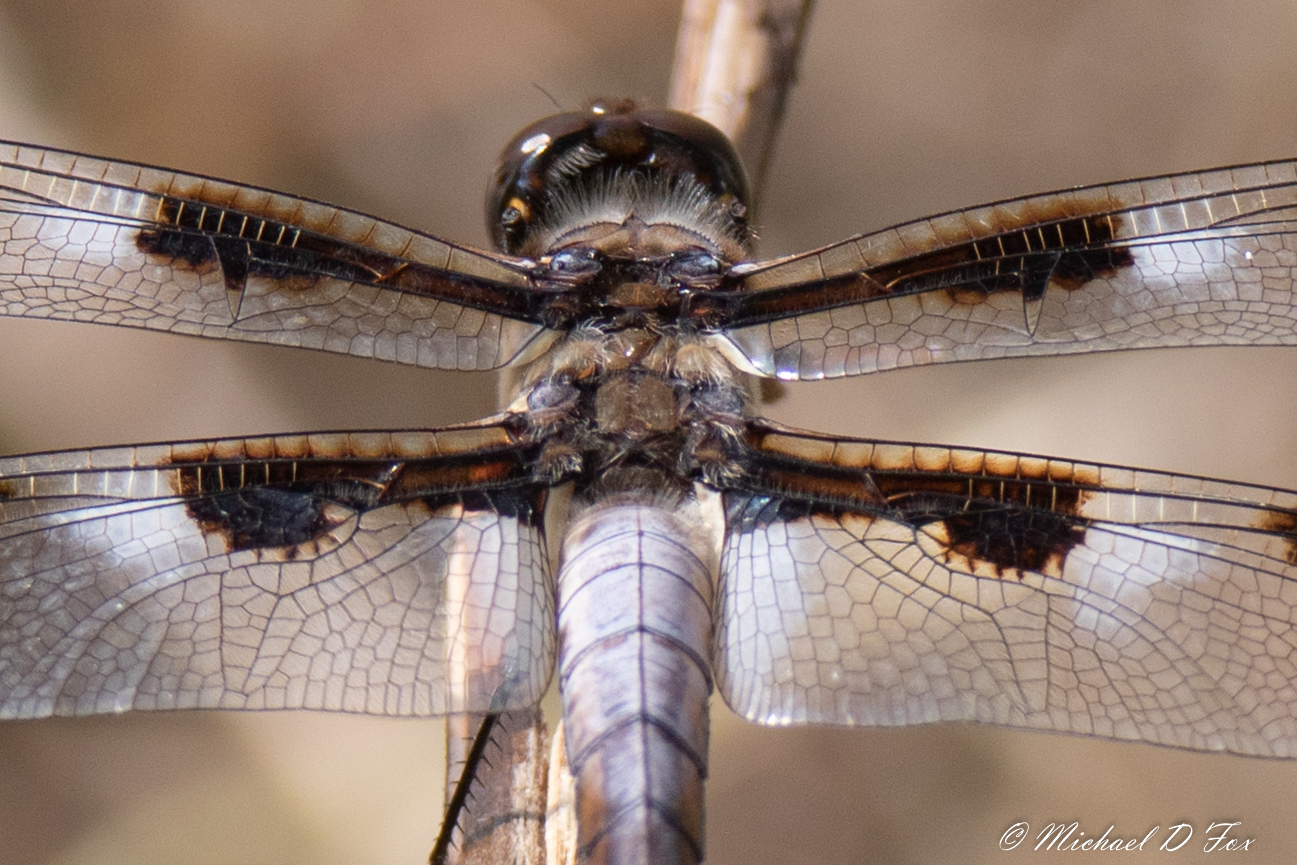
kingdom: Animalia
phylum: Arthropoda
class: Insecta
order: Odonata
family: Libellulidae
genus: Libellula
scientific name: Libellula pulchella
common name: Twelve-spotted skimmer
